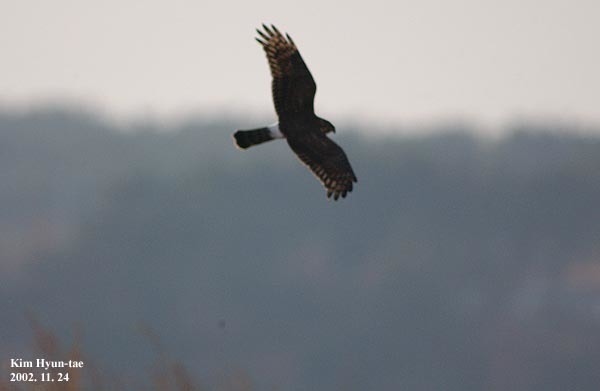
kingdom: Animalia
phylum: Chordata
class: Aves
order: Accipitriformes
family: Accipitridae
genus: Circus
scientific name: Circus cyaneus
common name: Hen harrier
